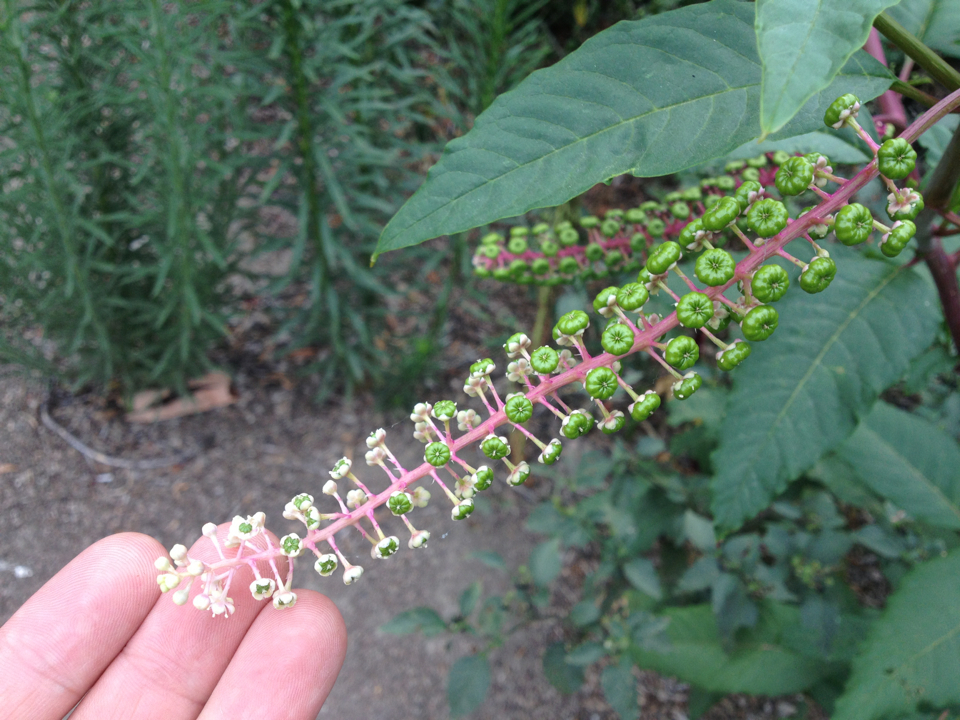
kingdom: Plantae
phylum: Tracheophyta
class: Magnoliopsida
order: Caryophyllales
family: Phytolaccaceae
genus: Phytolacca
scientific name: Phytolacca americana
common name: American pokeweed
